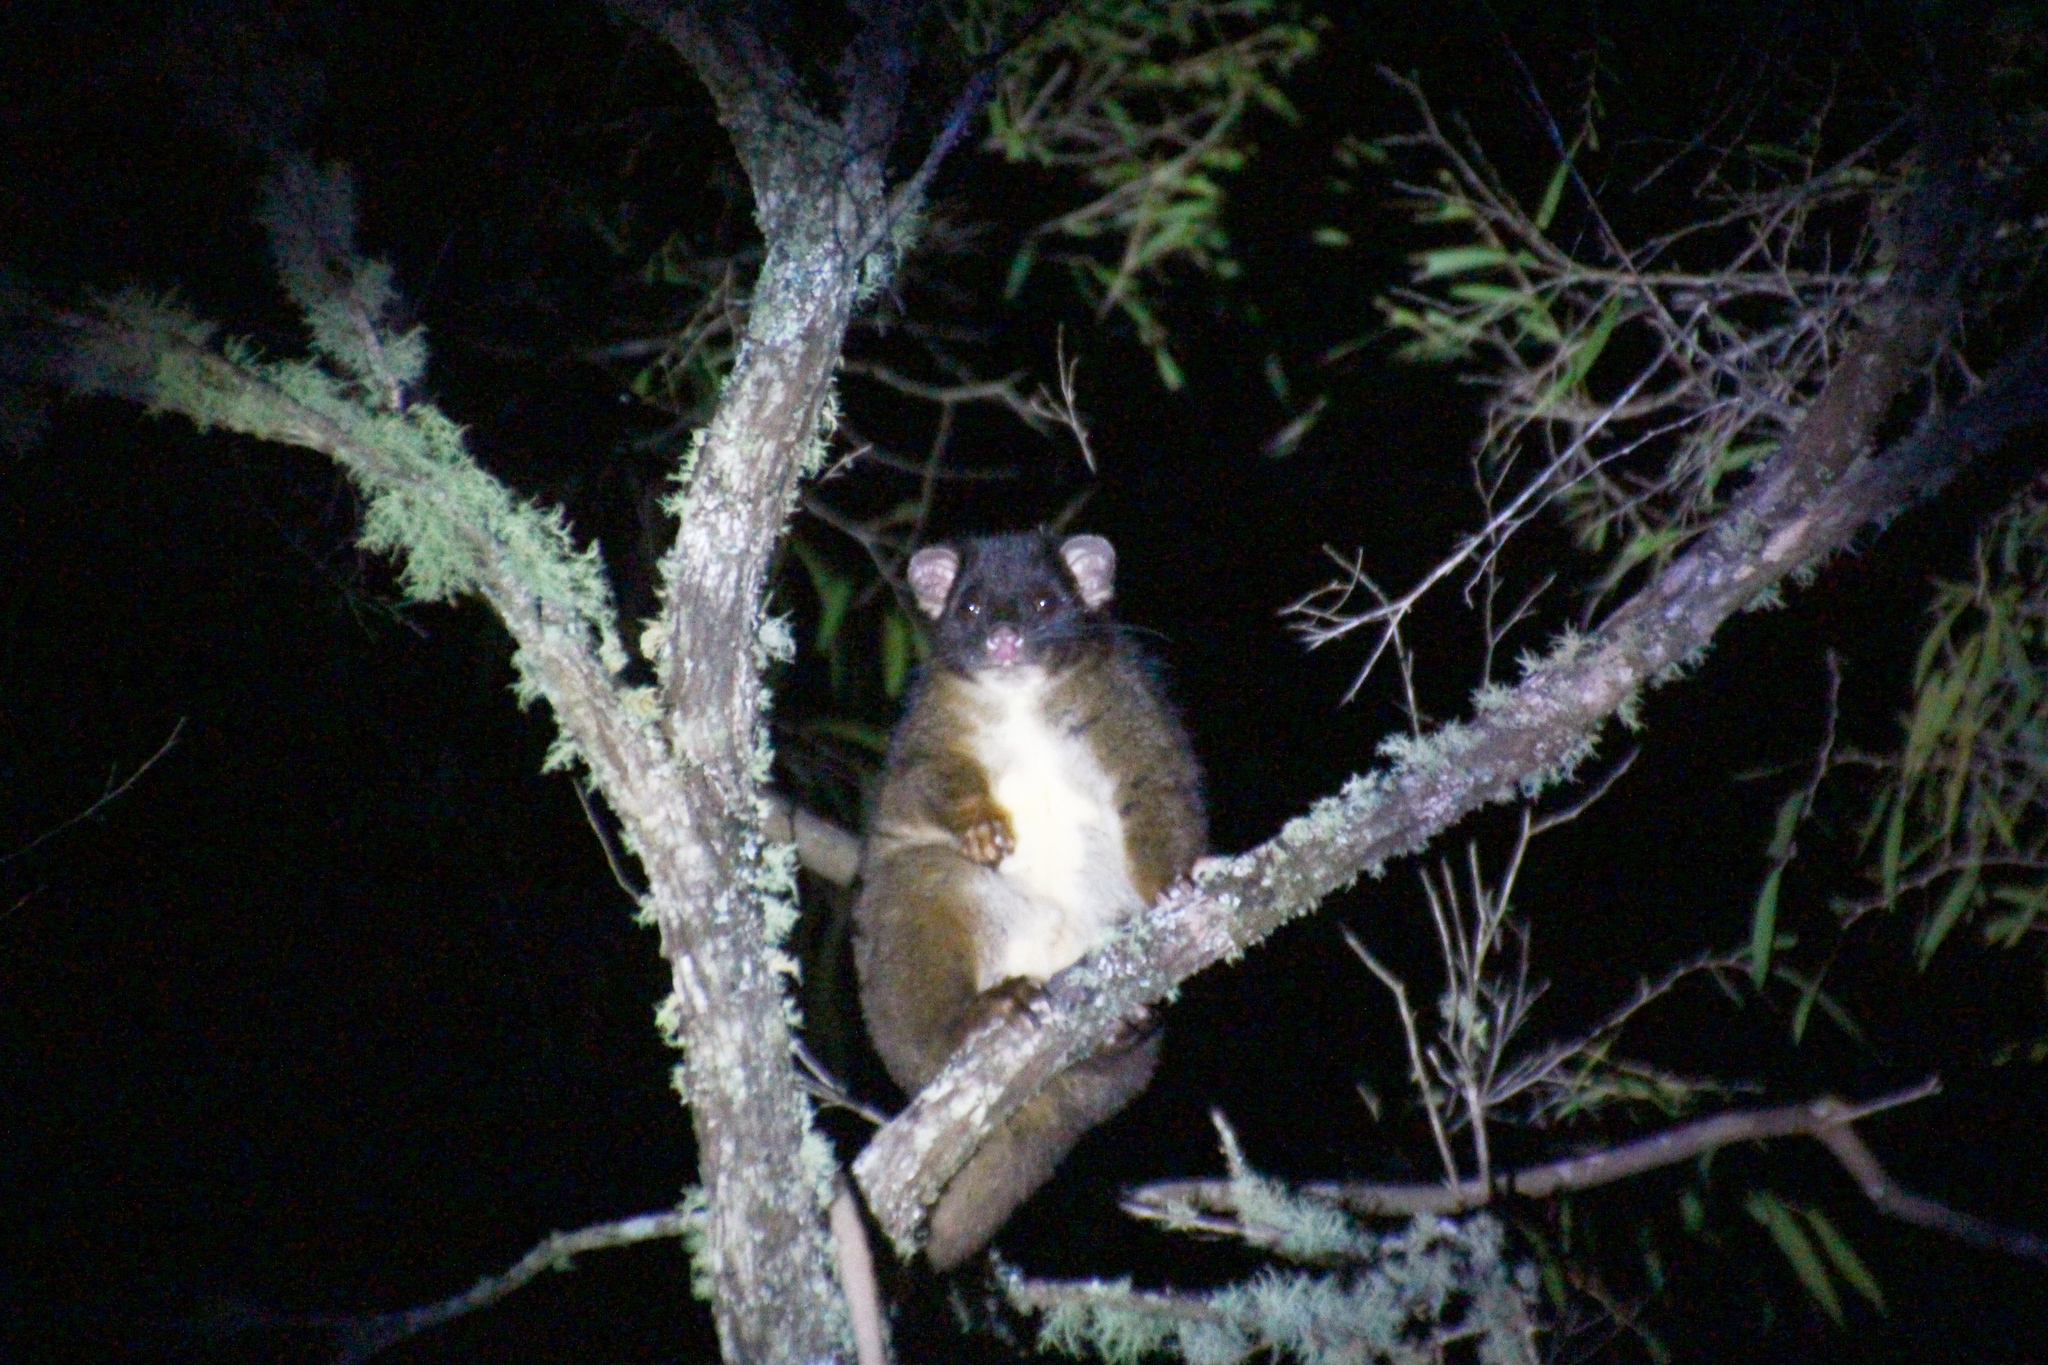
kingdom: Animalia
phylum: Chordata
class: Mammalia
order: Diprotodontia
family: Pseudocheiridae
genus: Pseudocheirus
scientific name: Pseudocheirus peregrinus
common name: Common ringtail possum
